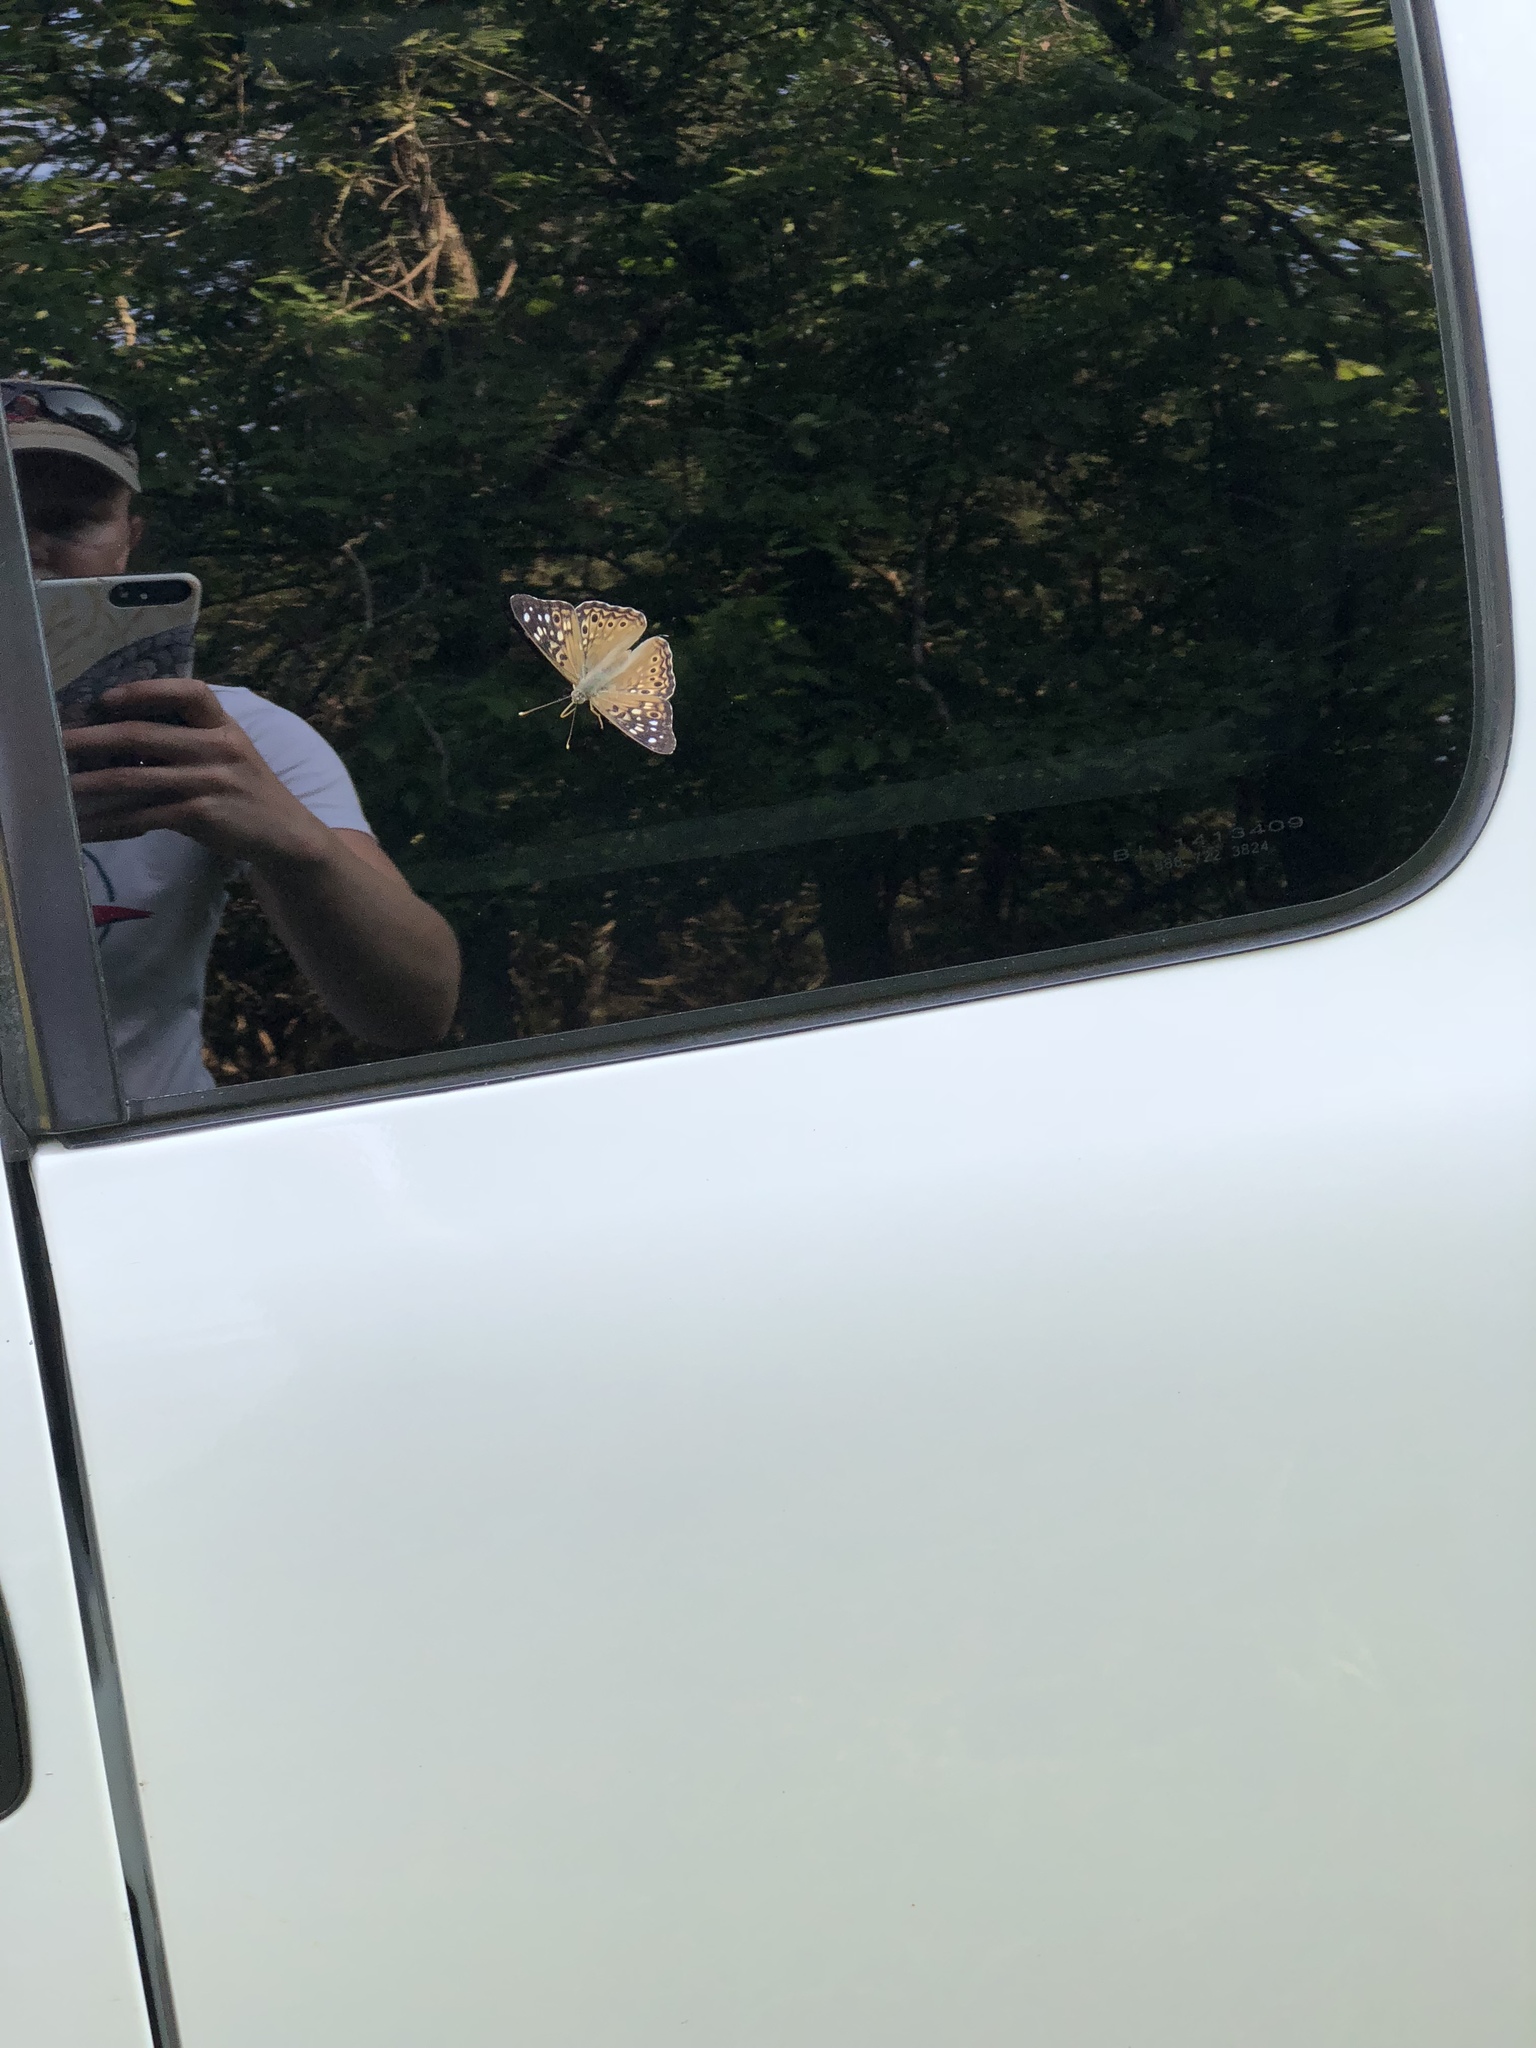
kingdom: Animalia
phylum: Arthropoda
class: Insecta
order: Lepidoptera
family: Nymphalidae
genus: Asterocampa
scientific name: Asterocampa celtis
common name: Hackberry emperor
